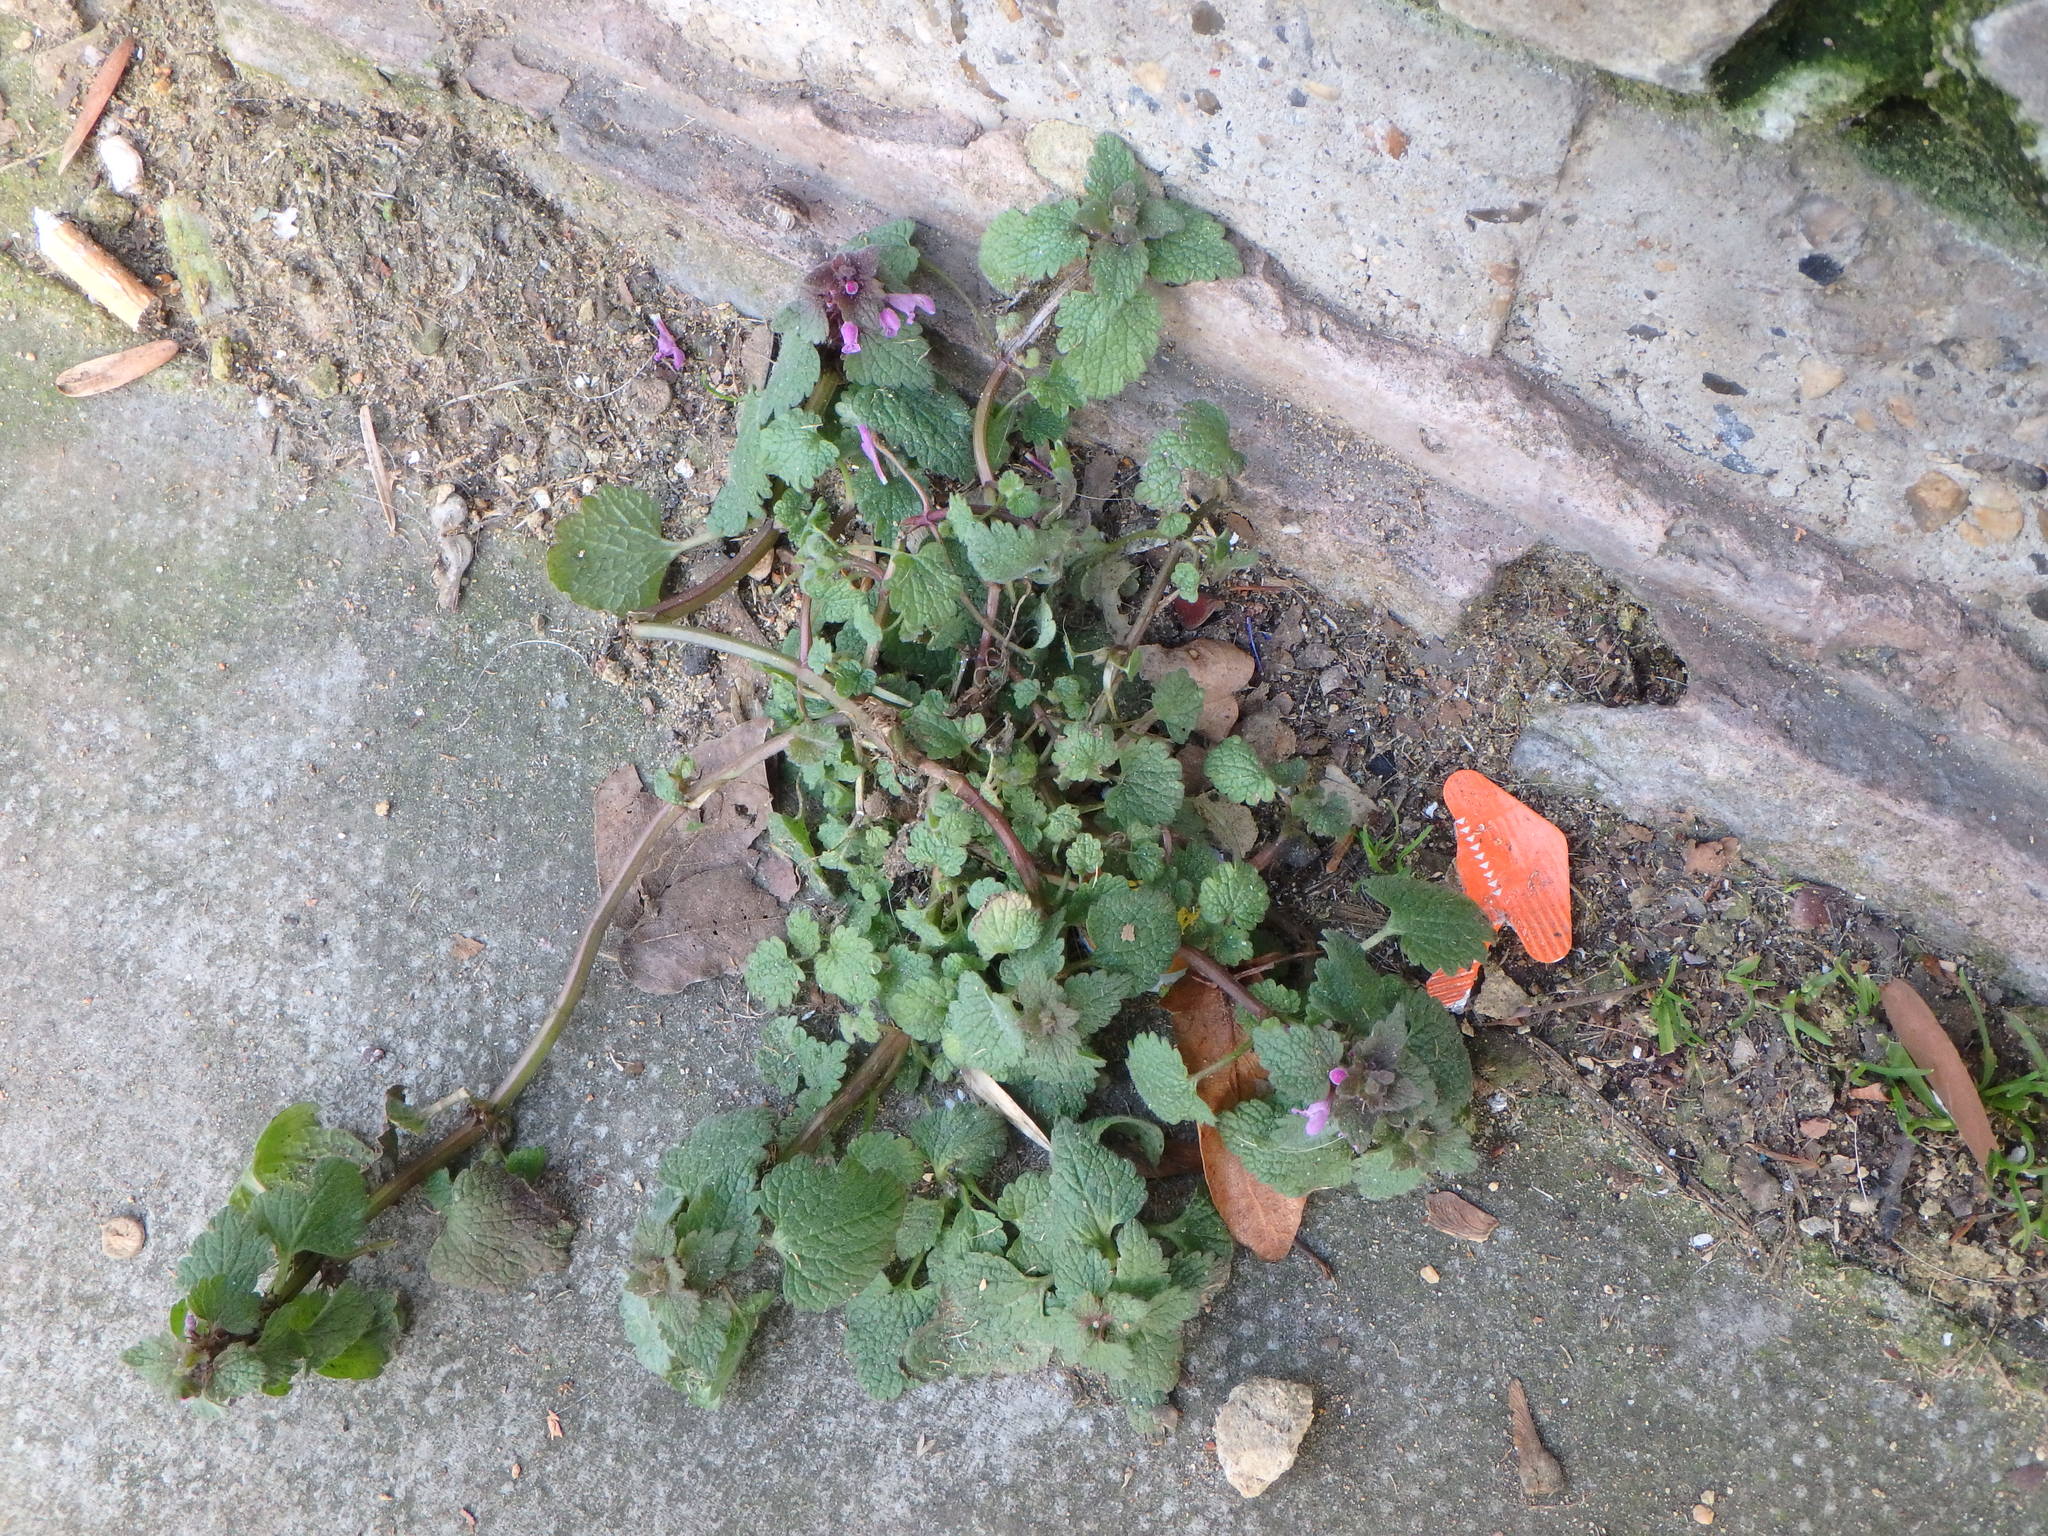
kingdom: Plantae
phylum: Tracheophyta
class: Magnoliopsida
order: Lamiales
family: Lamiaceae
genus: Lamium
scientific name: Lamium purpureum
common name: Red dead-nettle
